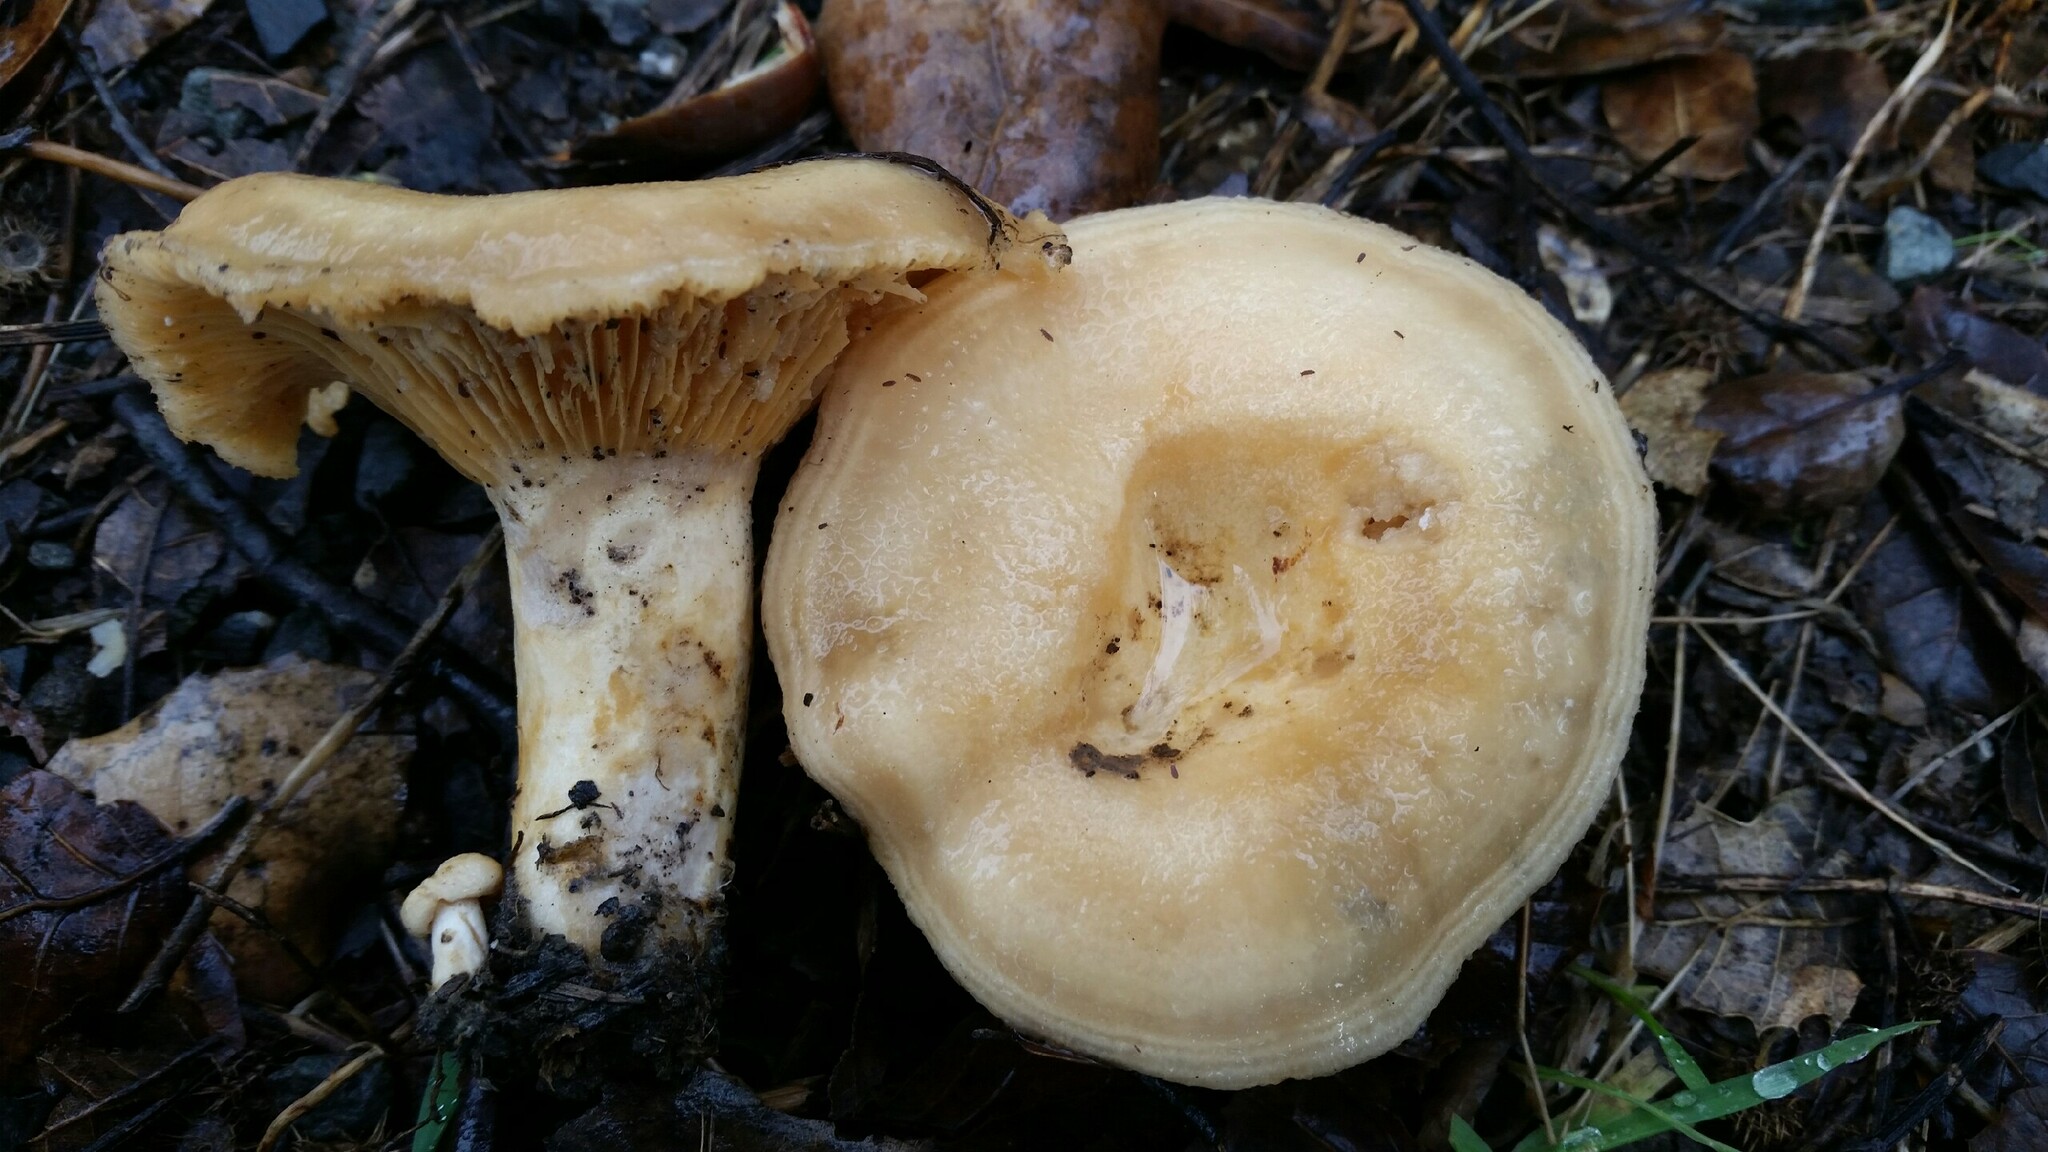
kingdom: Fungi
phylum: Basidiomycota
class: Agaricomycetes
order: Russulales
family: Russulaceae
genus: Lactarius
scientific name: Lactarius alnicola
